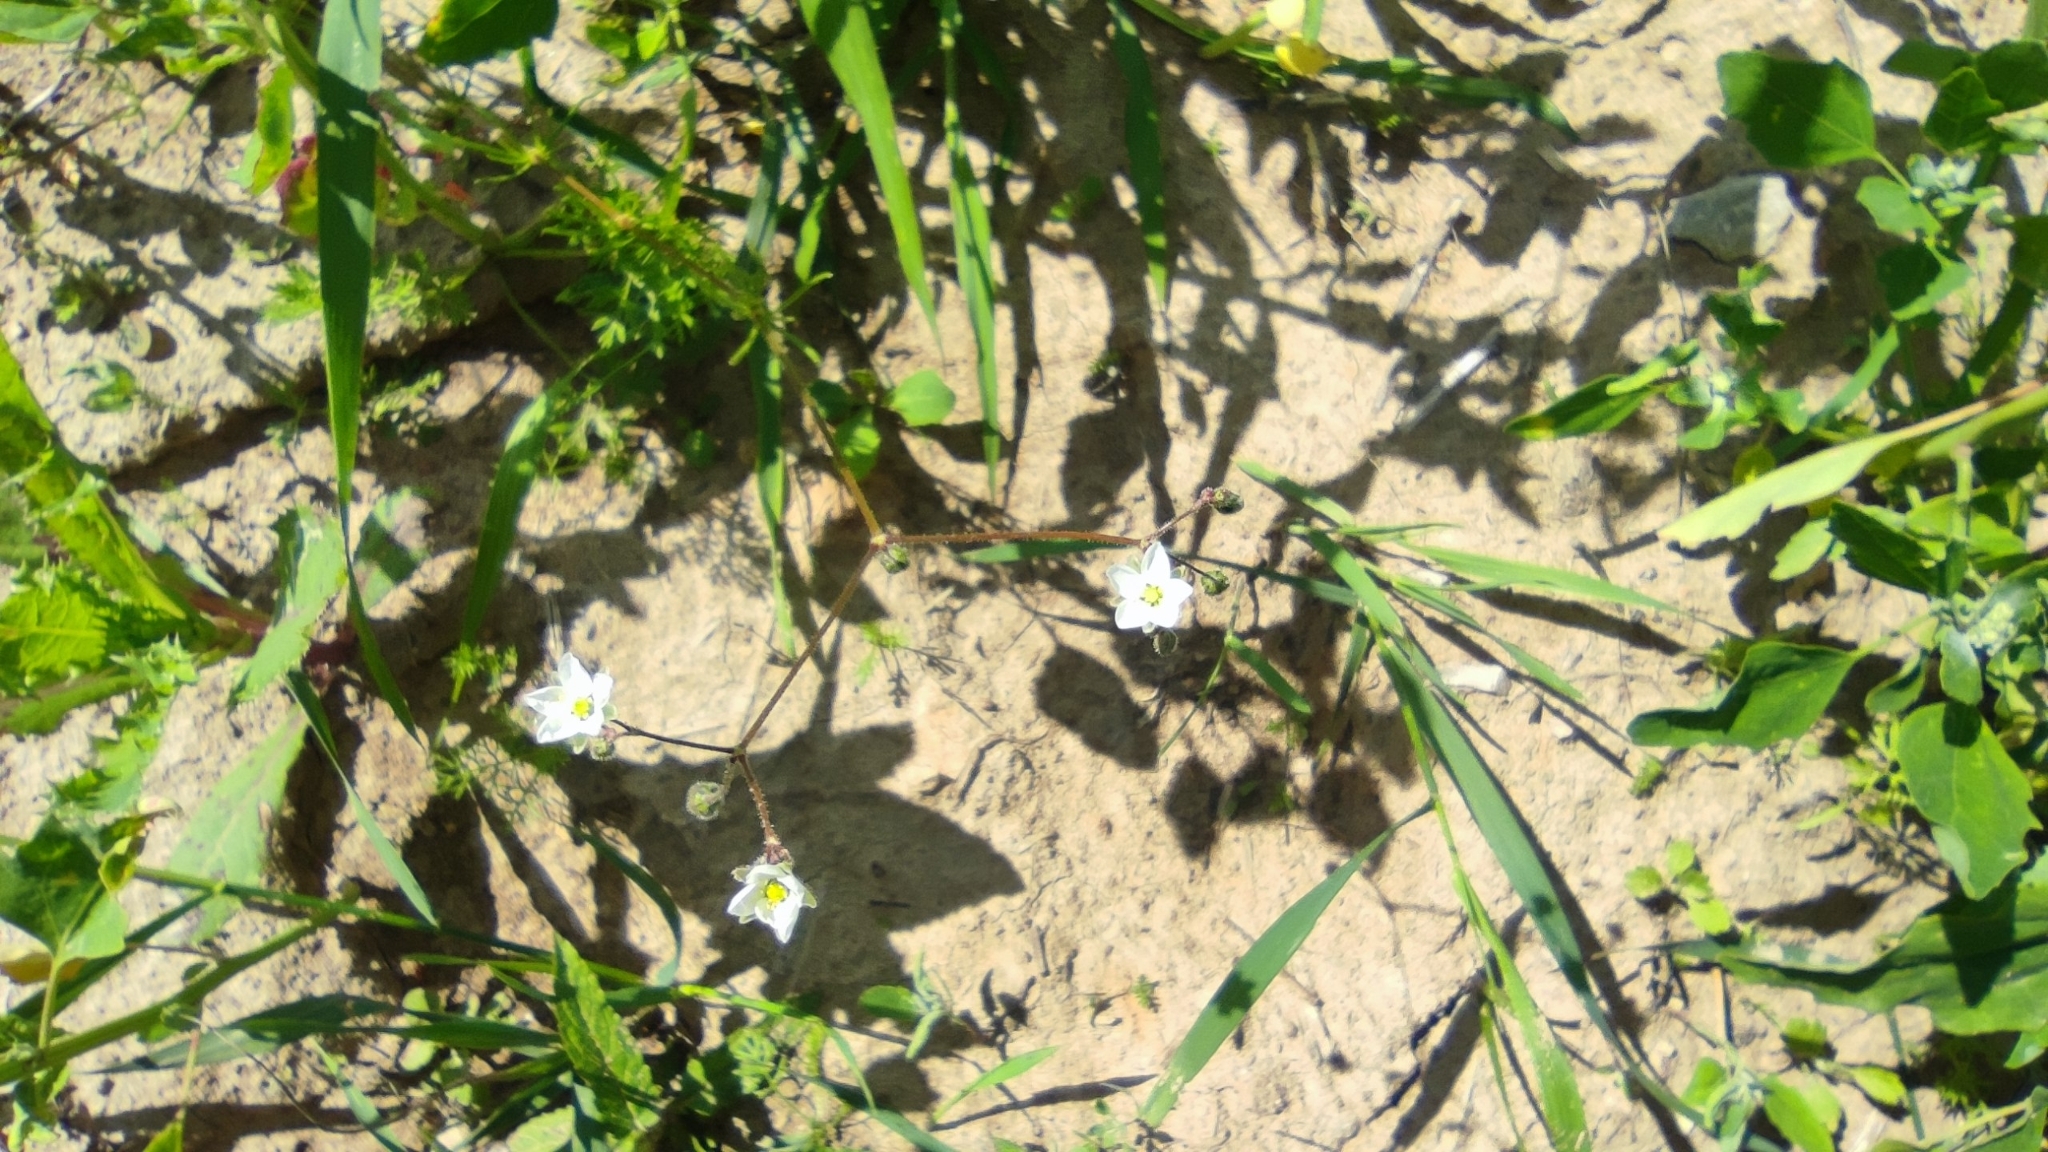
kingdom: Plantae
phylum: Tracheophyta
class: Magnoliopsida
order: Caryophyllales
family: Caryophyllaceae
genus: Spergula
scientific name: Spergula arvensis
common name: Corn spurrey
